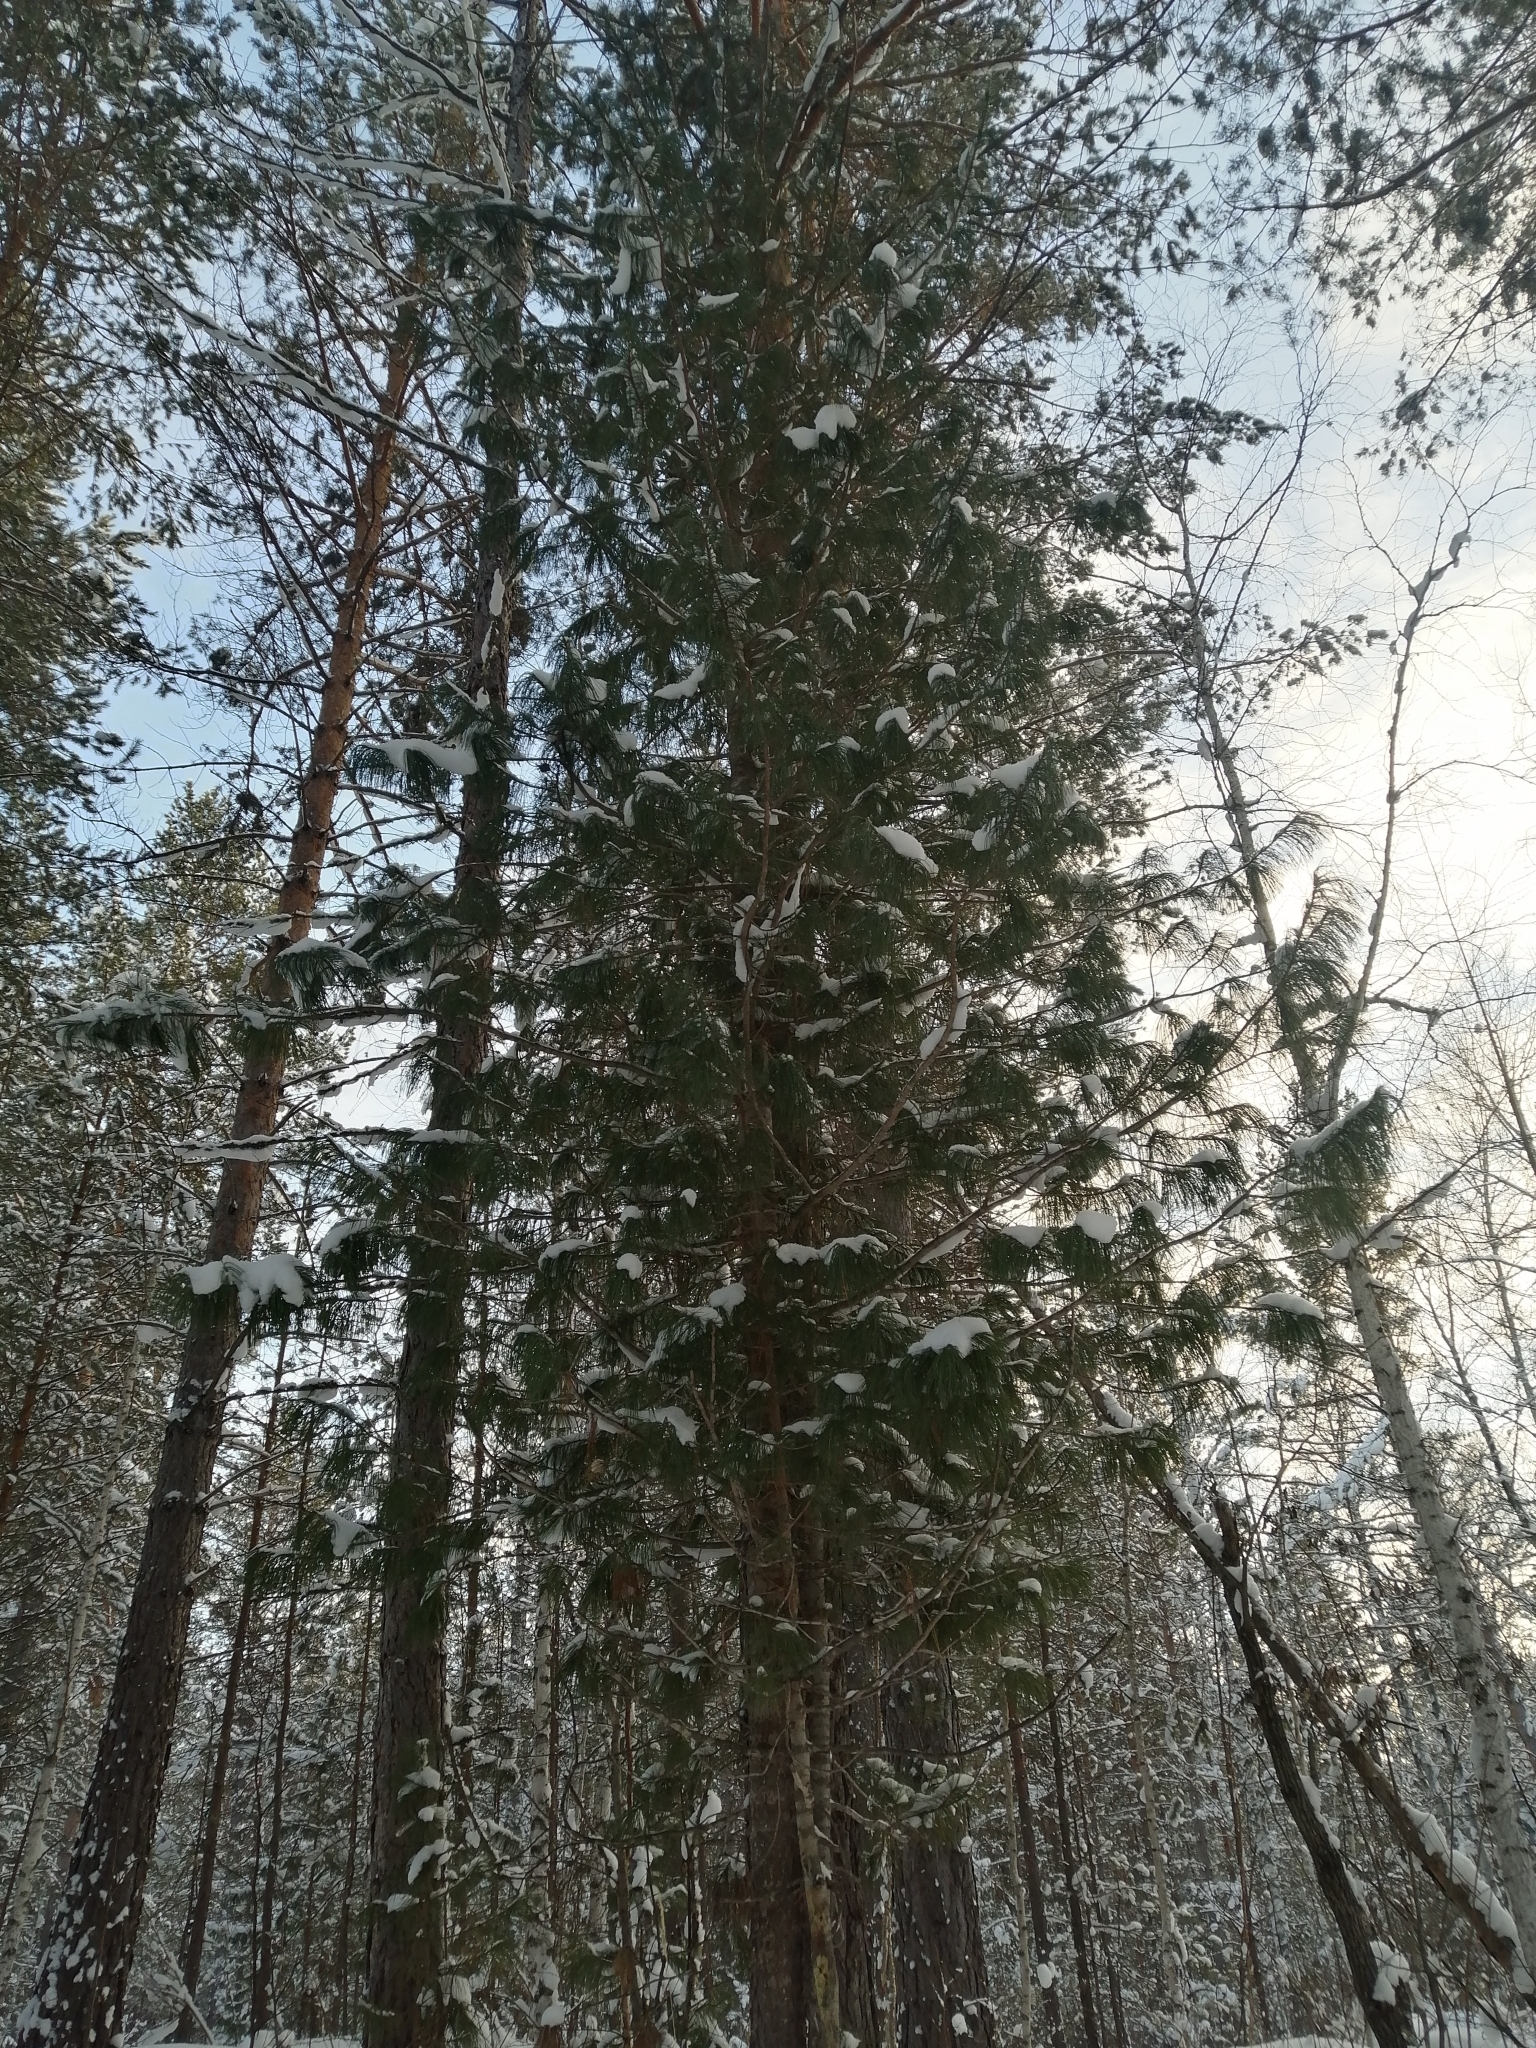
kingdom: Plantae
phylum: Tracheophyta
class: Pinopsida
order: Pinales
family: Pinaceae
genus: Pinus
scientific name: Pinus sibirica
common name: Siberian pine
